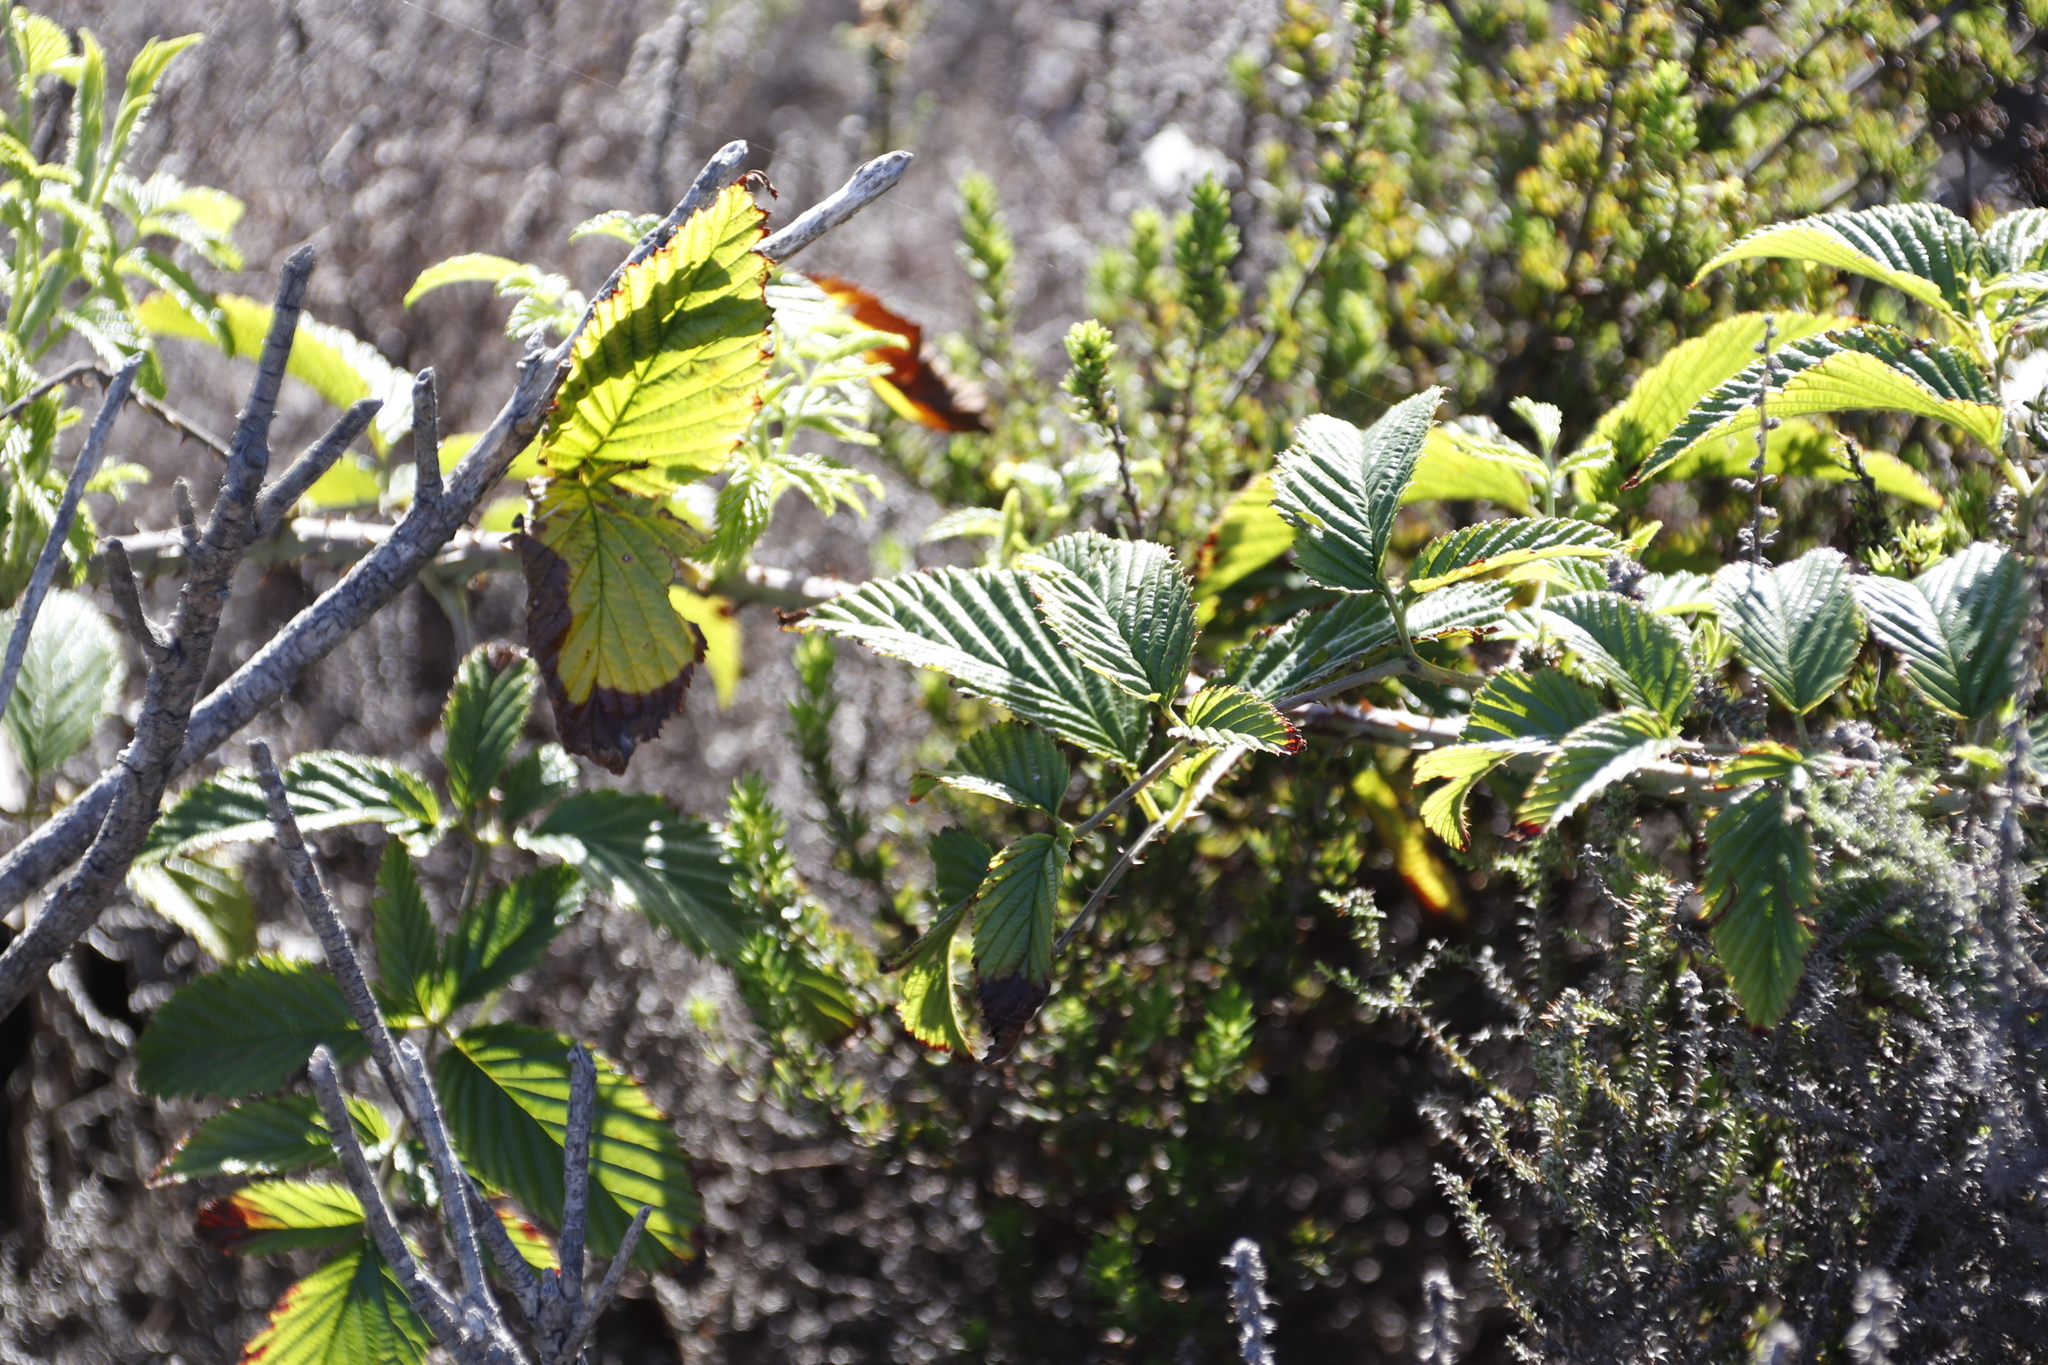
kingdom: Plantae
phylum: Tracheophyta
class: Magnoliopsida
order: Rosales
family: Rosaceae
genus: Rubus
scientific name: Rubus pinnatus
